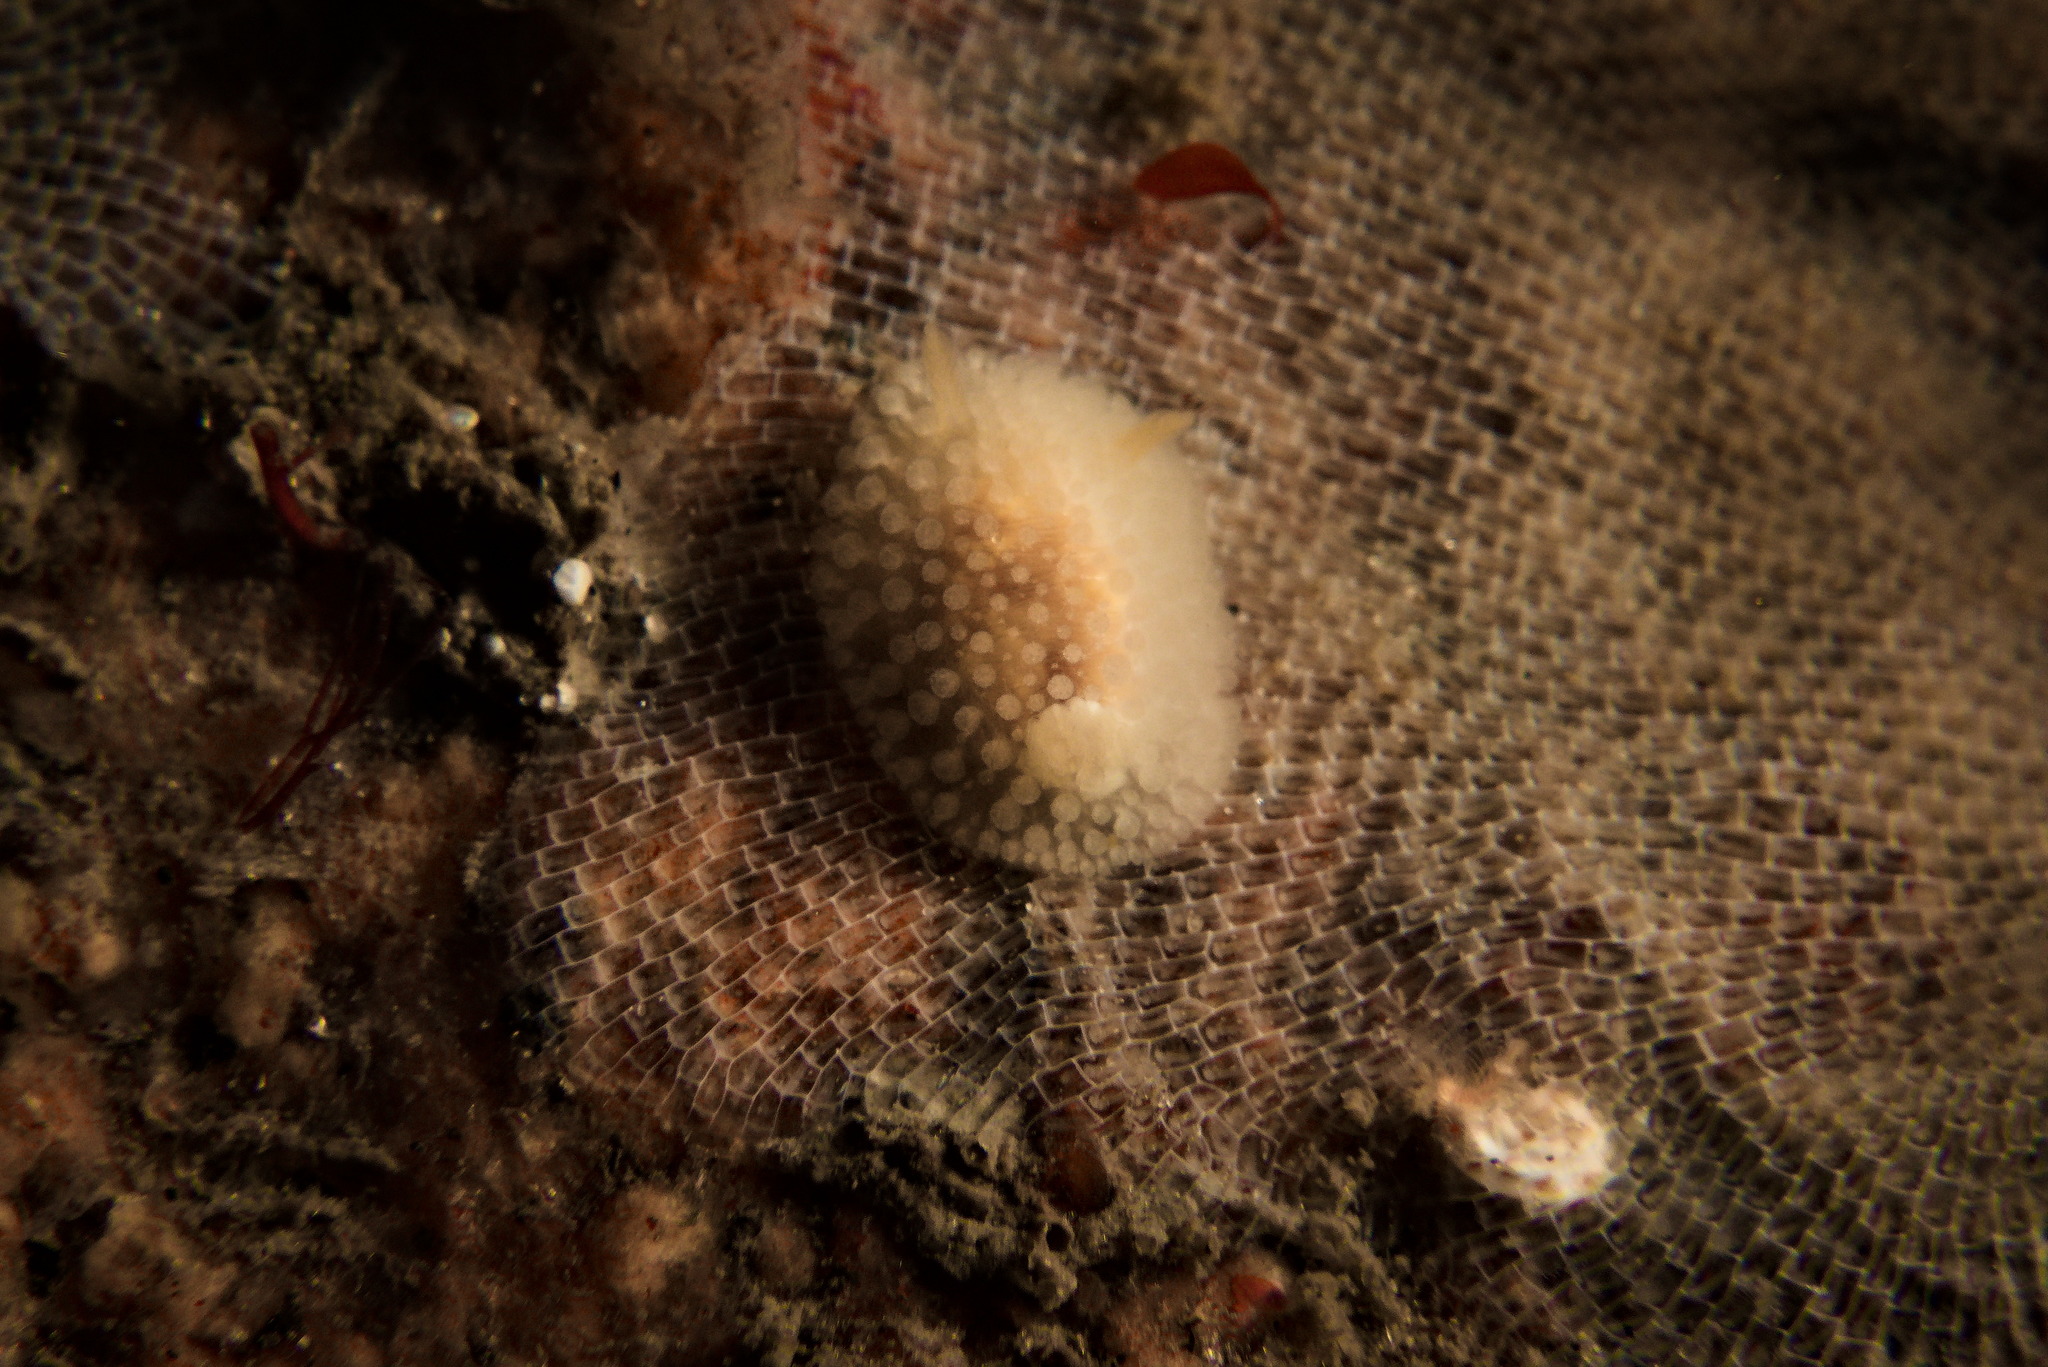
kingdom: Animalia
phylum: Mollusca
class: Gastropoda
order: Nudibranchia
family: Onchidorididae
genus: Onchidoris
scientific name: Onchidoris muricata
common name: Rough doris
